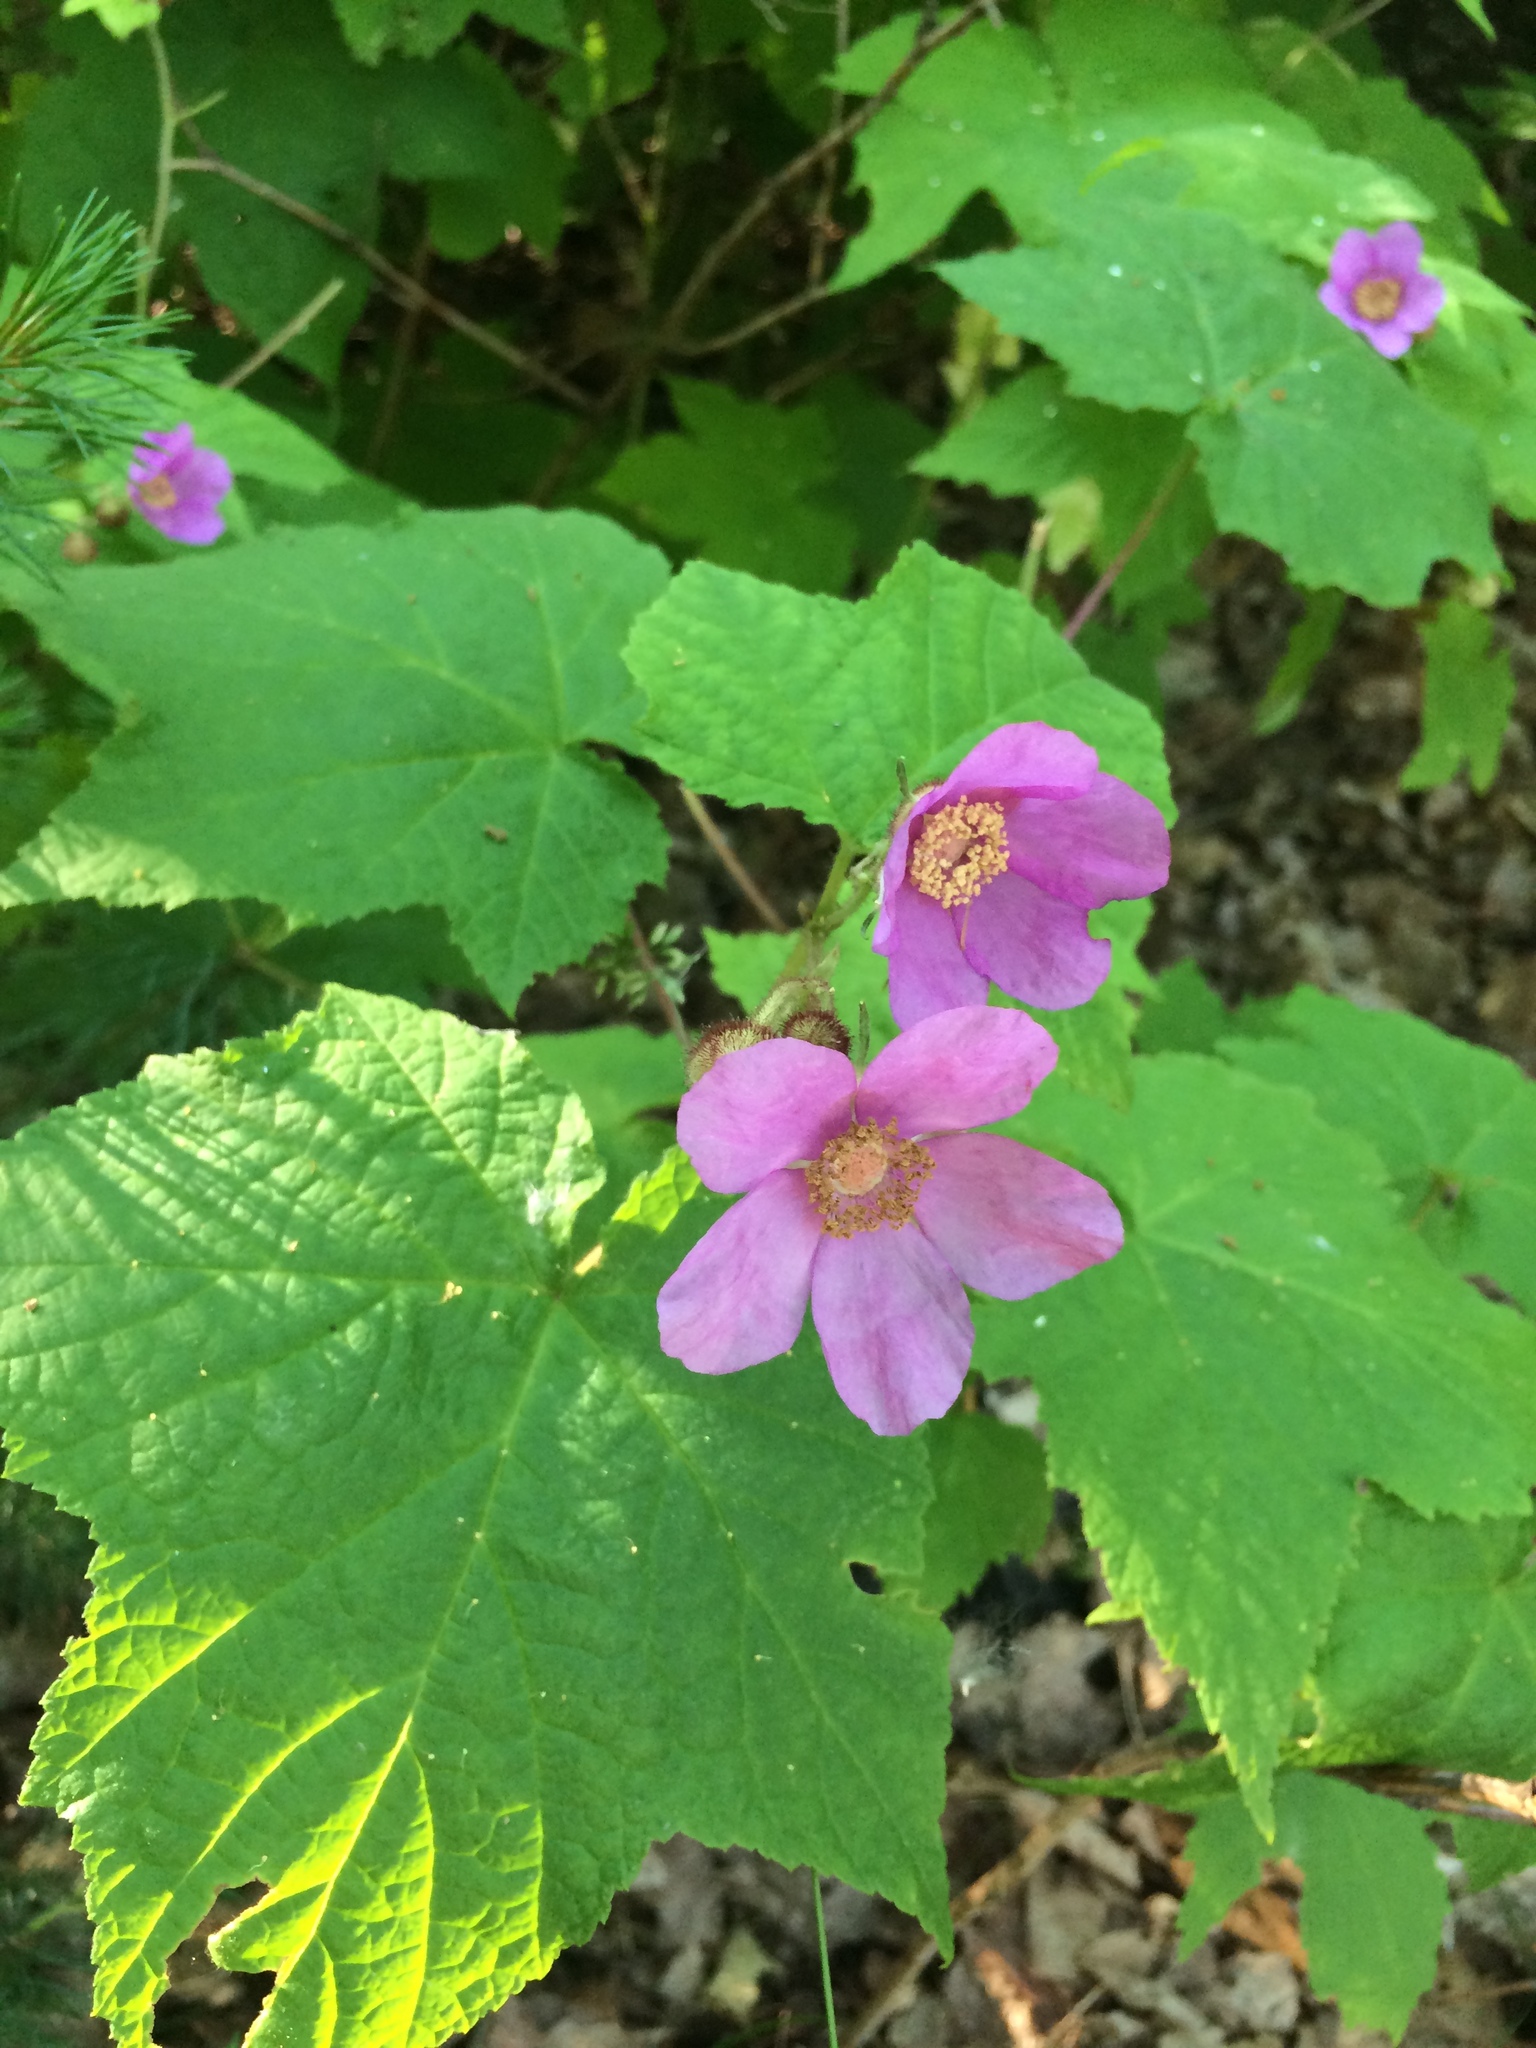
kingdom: Plantae
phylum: Tracheophyta
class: Magnoliopsida
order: Rosales
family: Rosaceae
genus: Rubus
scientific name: Rubus odoratus
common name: Purple-flowered raspberry
